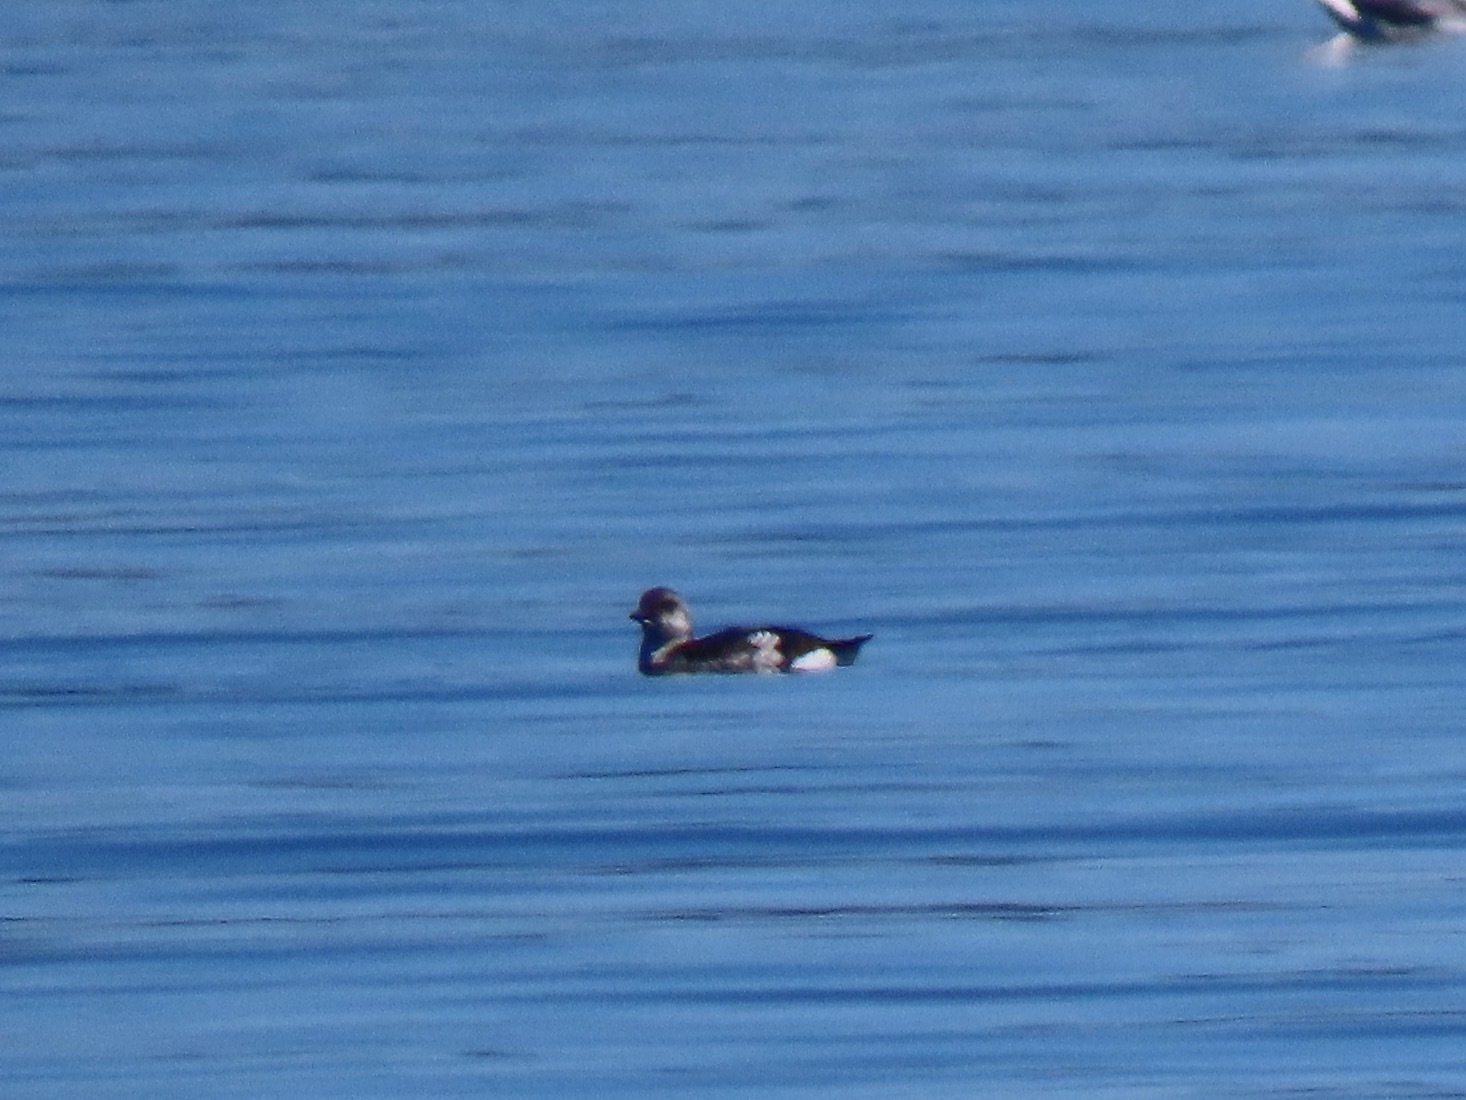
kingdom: Animalia
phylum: Chordata
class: Aves
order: Charadriiformes
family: Alcidae
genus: Cepphus
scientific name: Cepphus columba
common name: Pigeon guillemot
